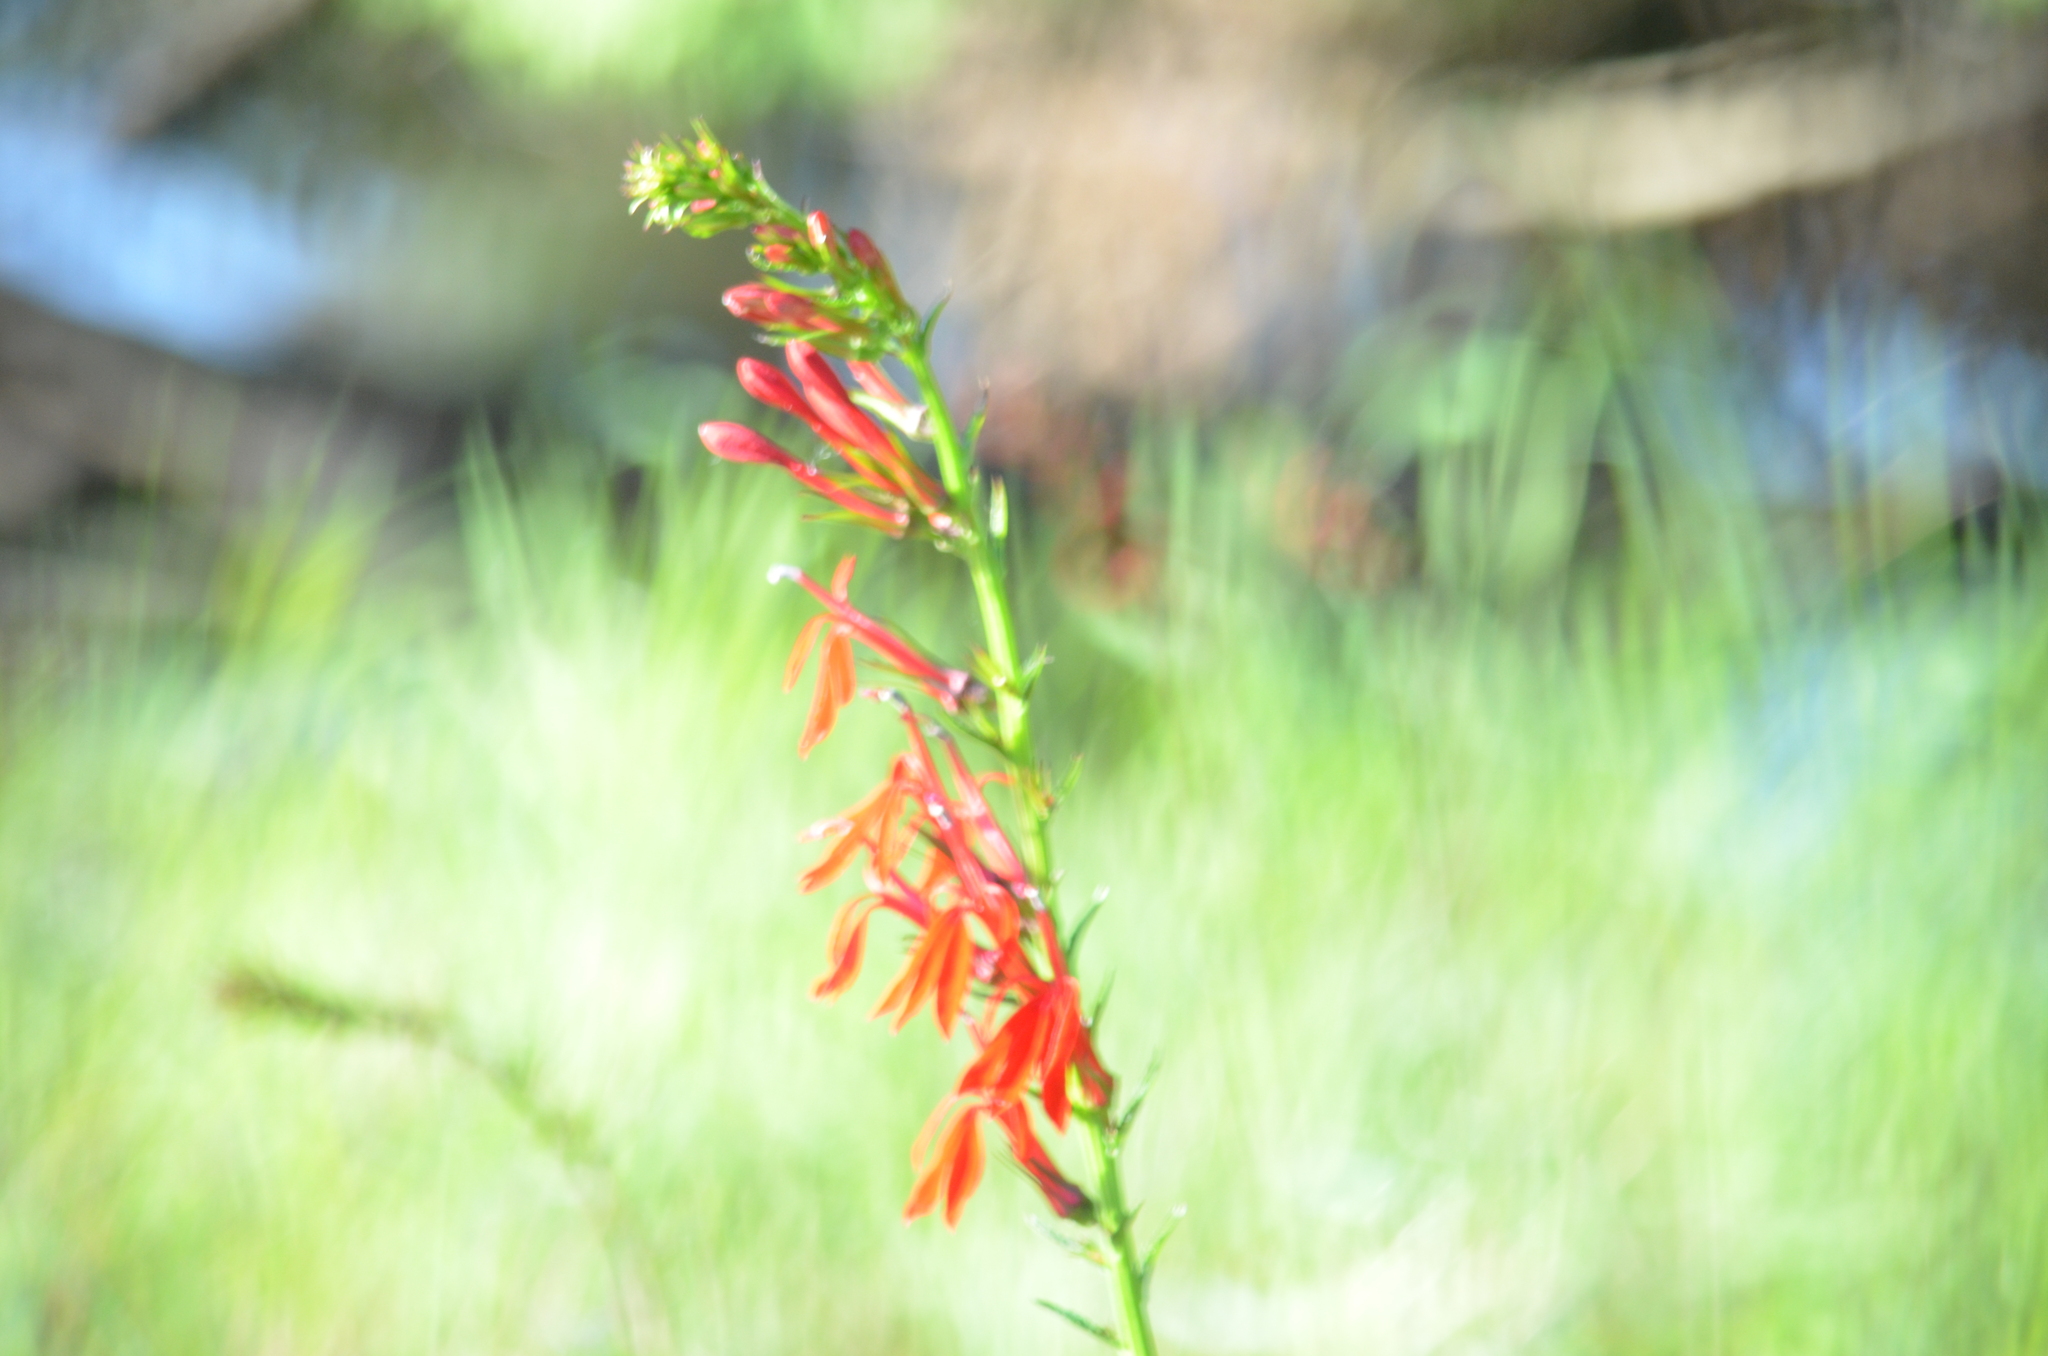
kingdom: Plantae
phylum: Tracheophyta
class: Magnoliopsida
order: Asterales
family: Campanulaceae
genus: Lobelia
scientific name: Lobelia cardinalis
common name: Cardinal flower
